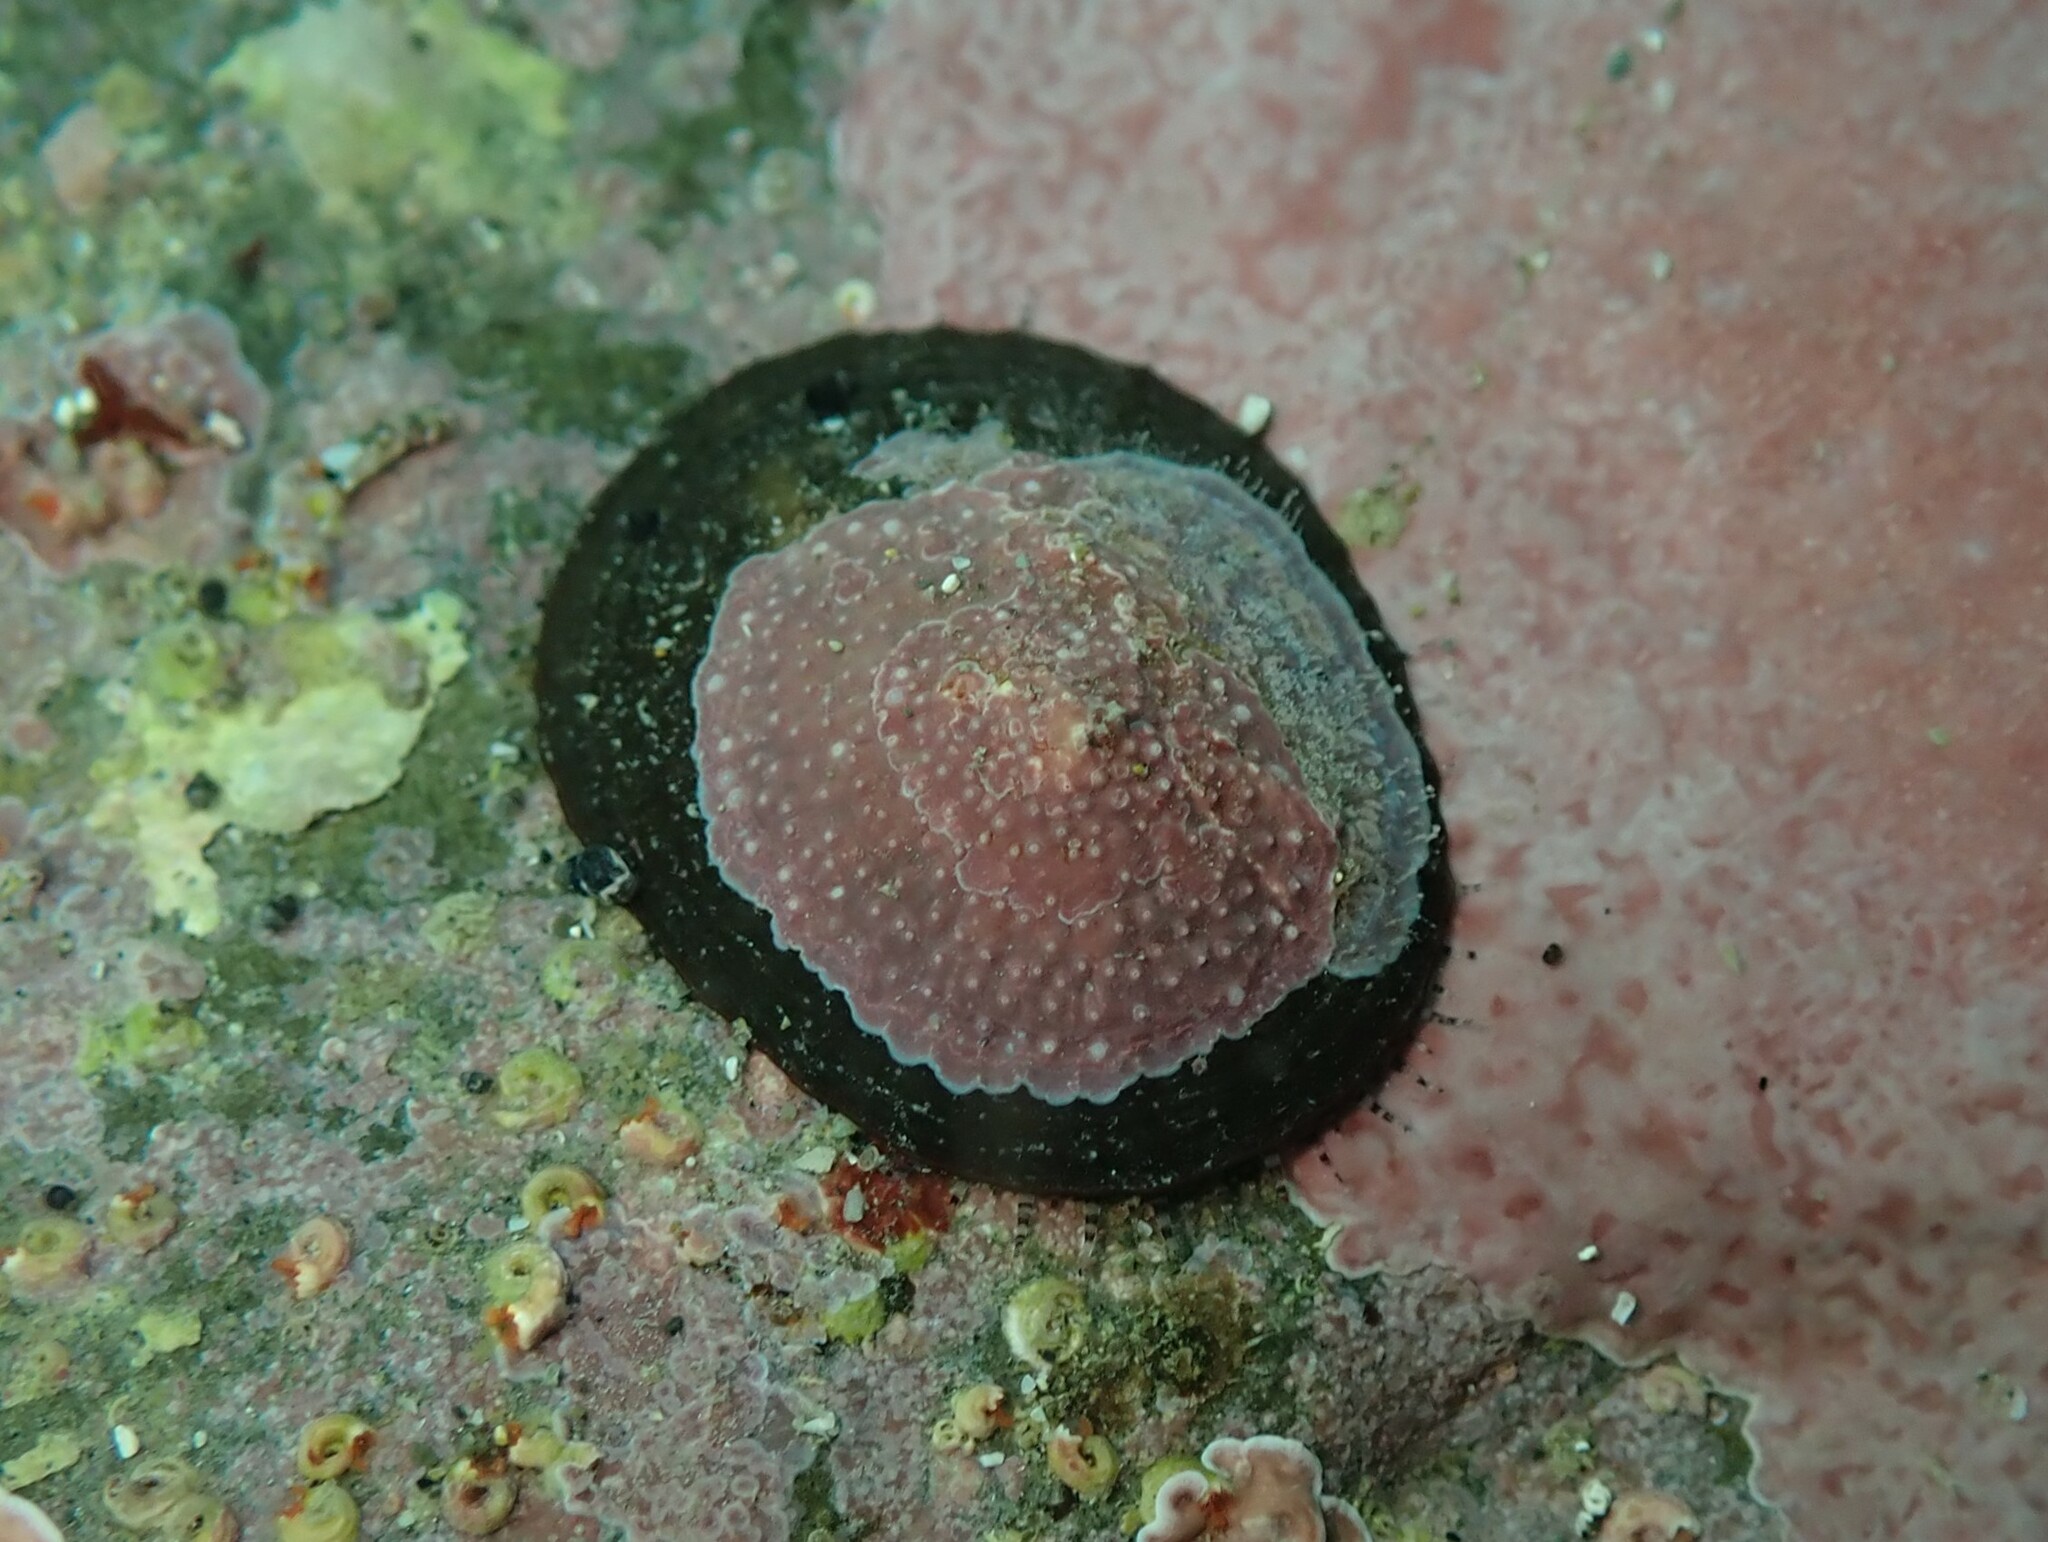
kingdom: Animalia
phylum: Mollusca
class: Gastropoda
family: Nacellidae
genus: Cellana
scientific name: Cellana stellifera
